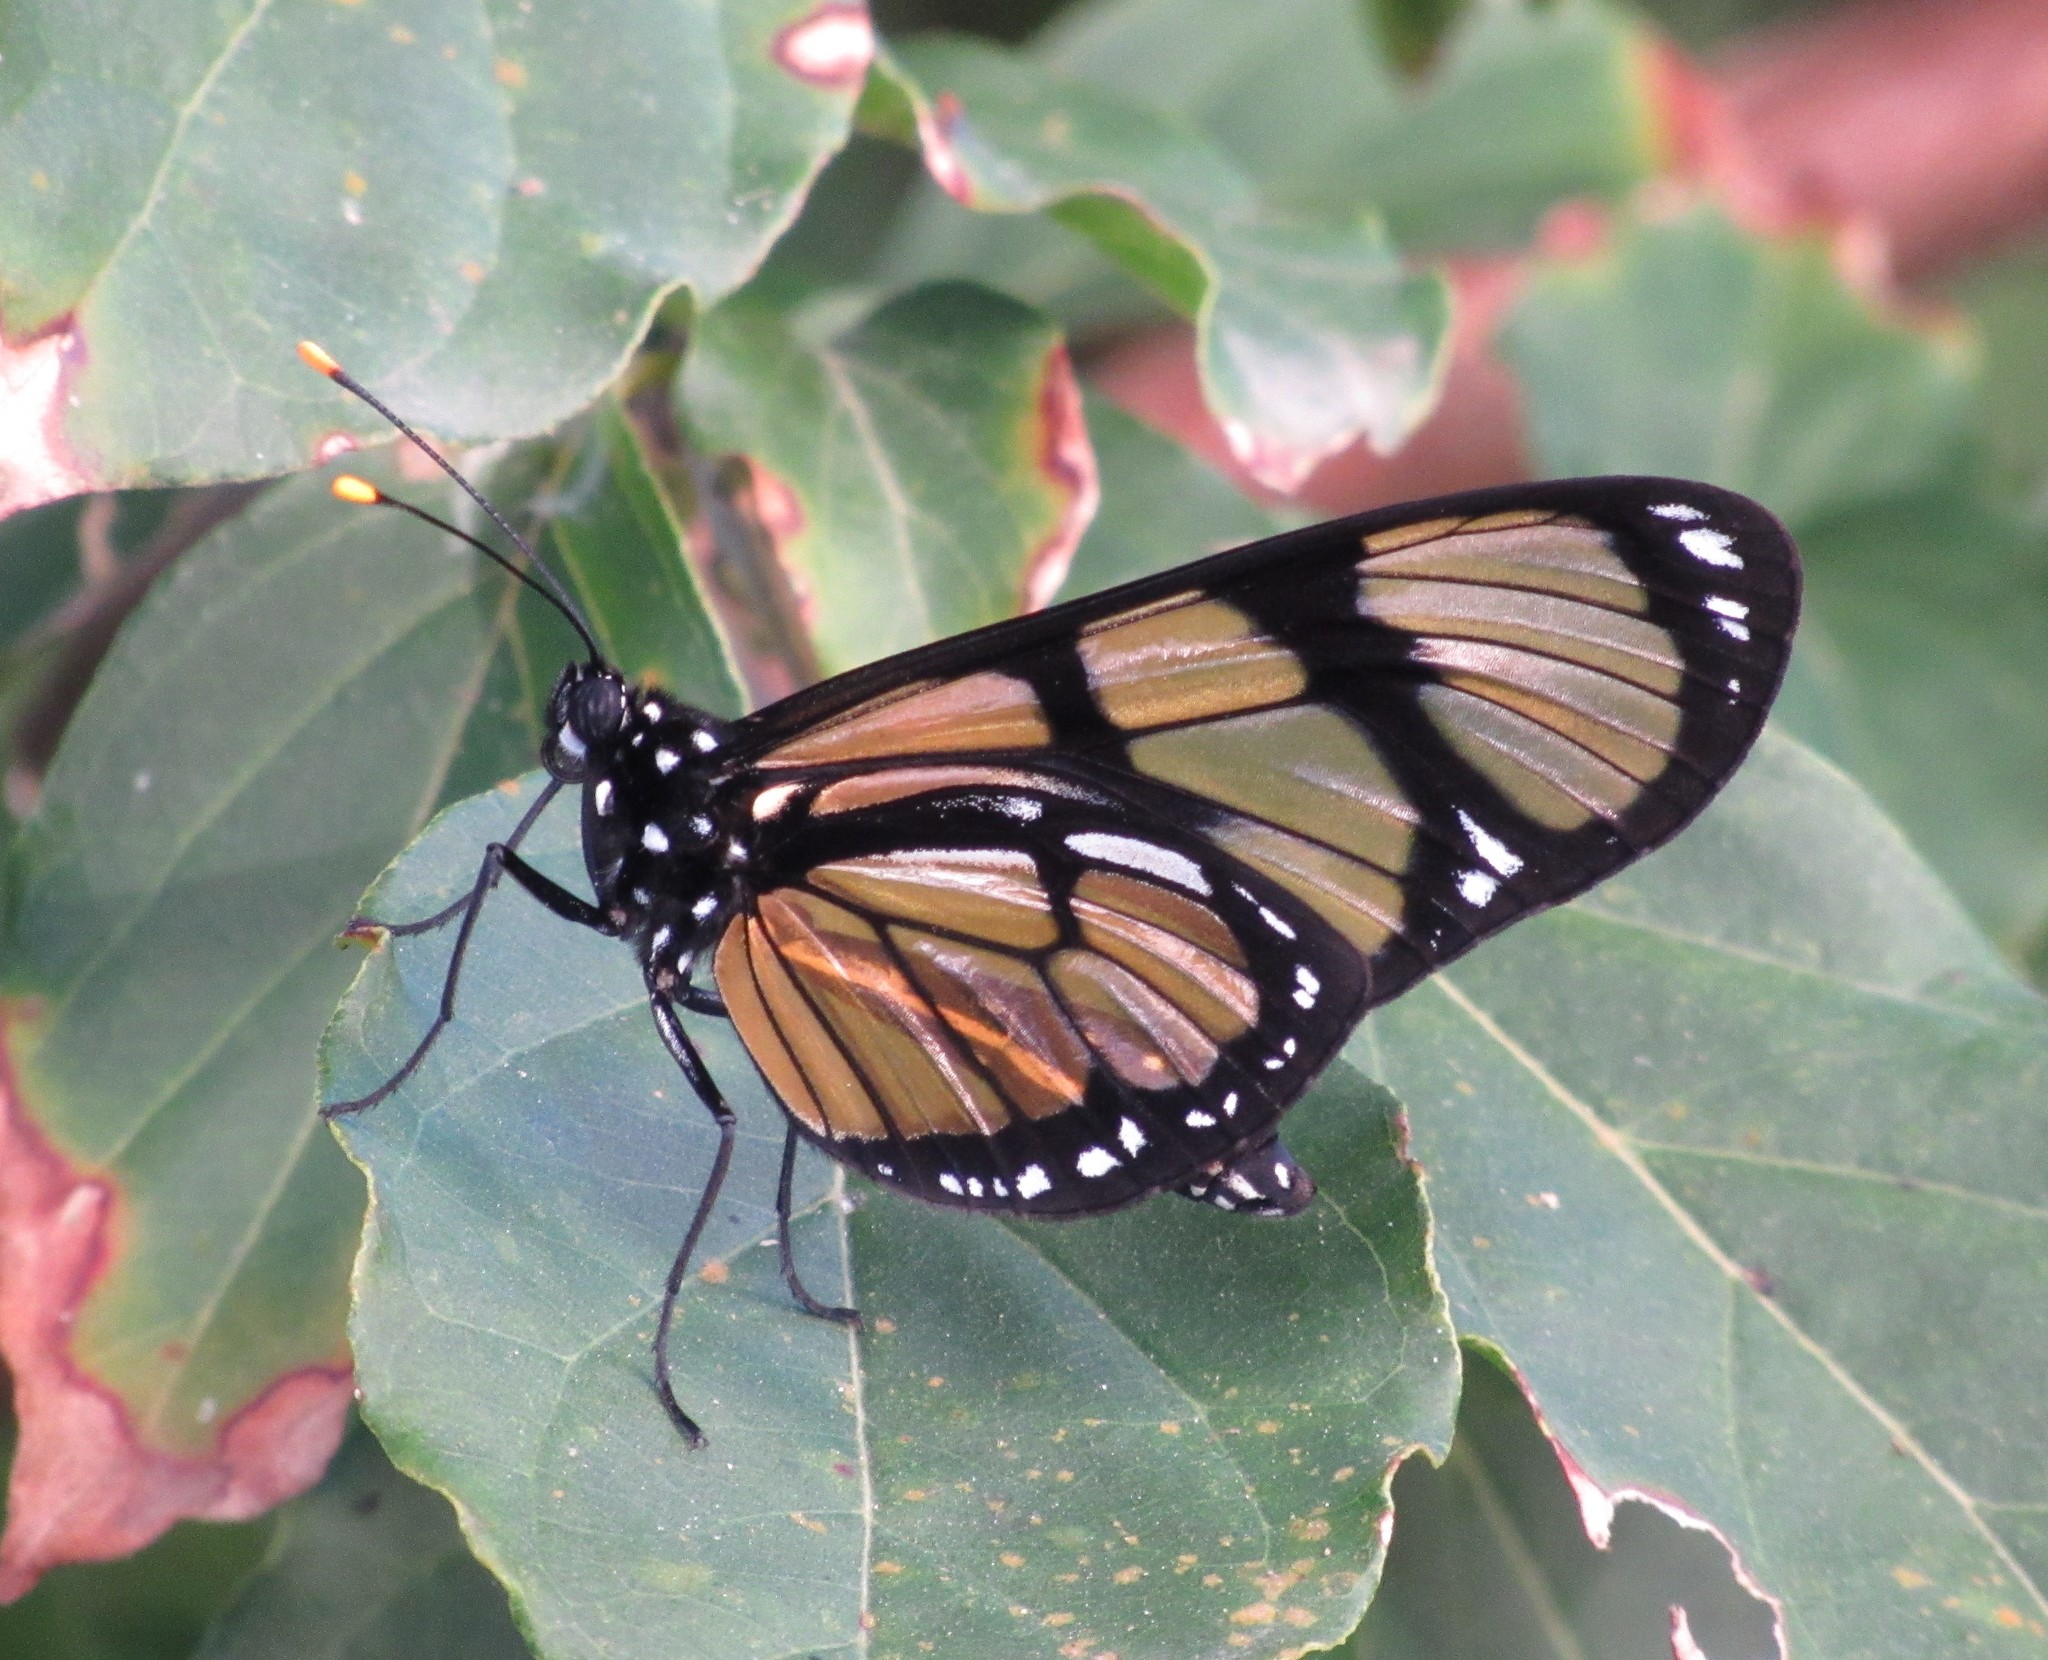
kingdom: Animalia
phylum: Arthropoda
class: Insecta
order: Lepidoptera
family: Nymphalidae
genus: Methona
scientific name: Methona themisto
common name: Themisto amberwing
